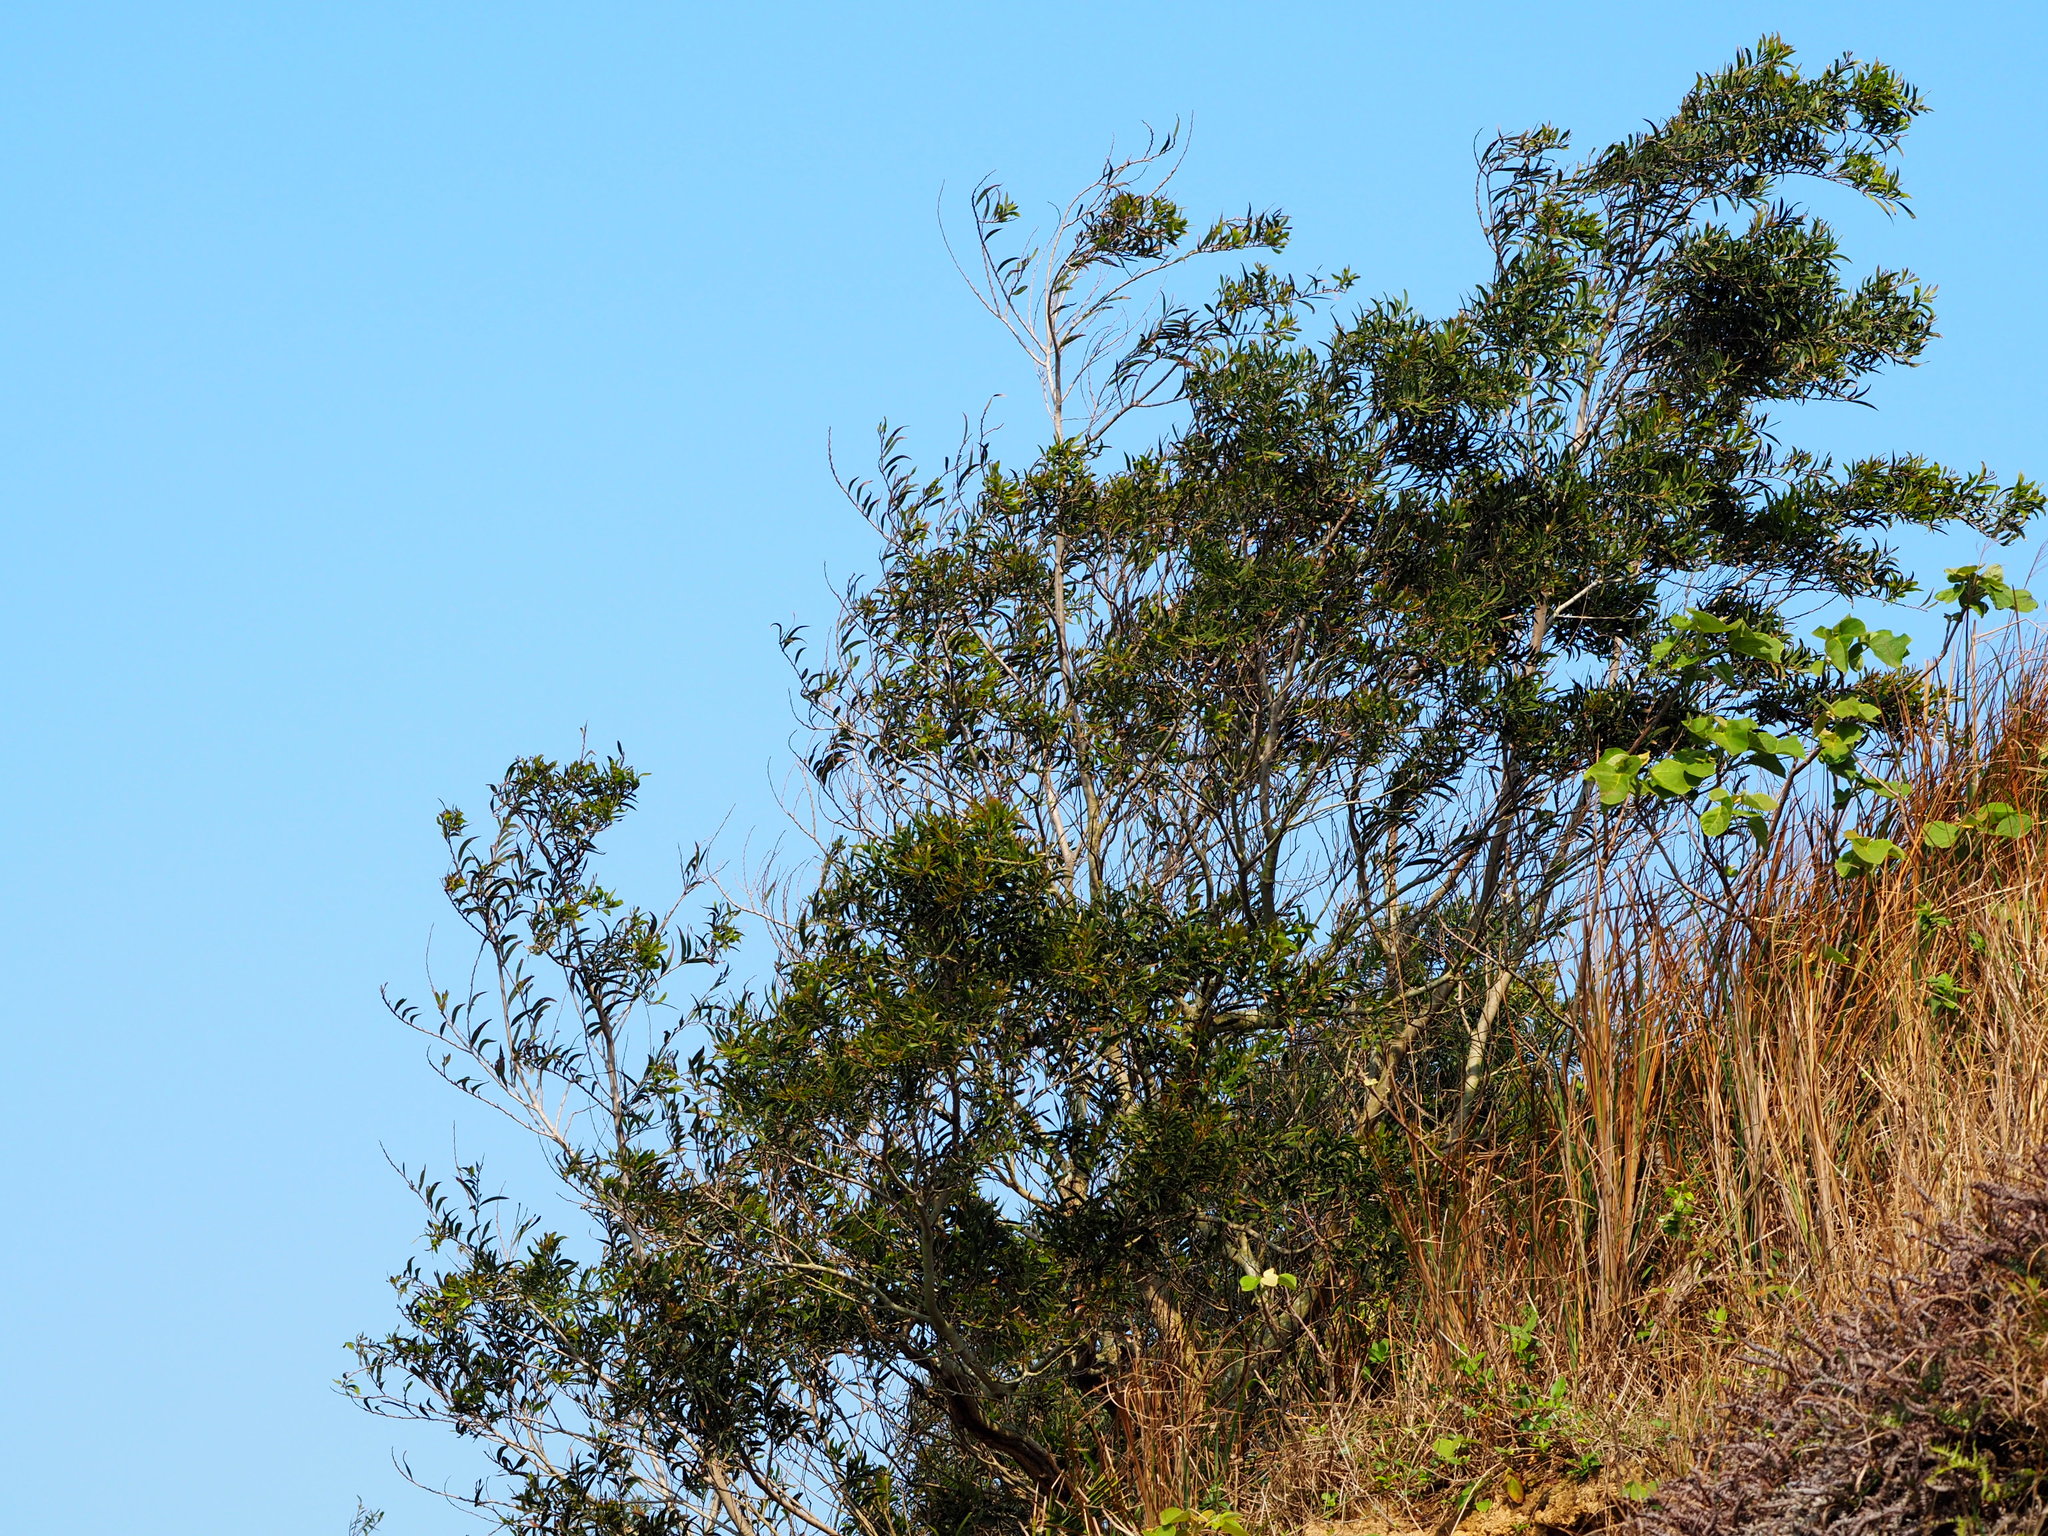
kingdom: Plantae
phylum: Tracheophyta
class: Magnoliopsida
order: Fabales
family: Fabaceae
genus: Acacia
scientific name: Acacia confusa
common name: Formosan koa
